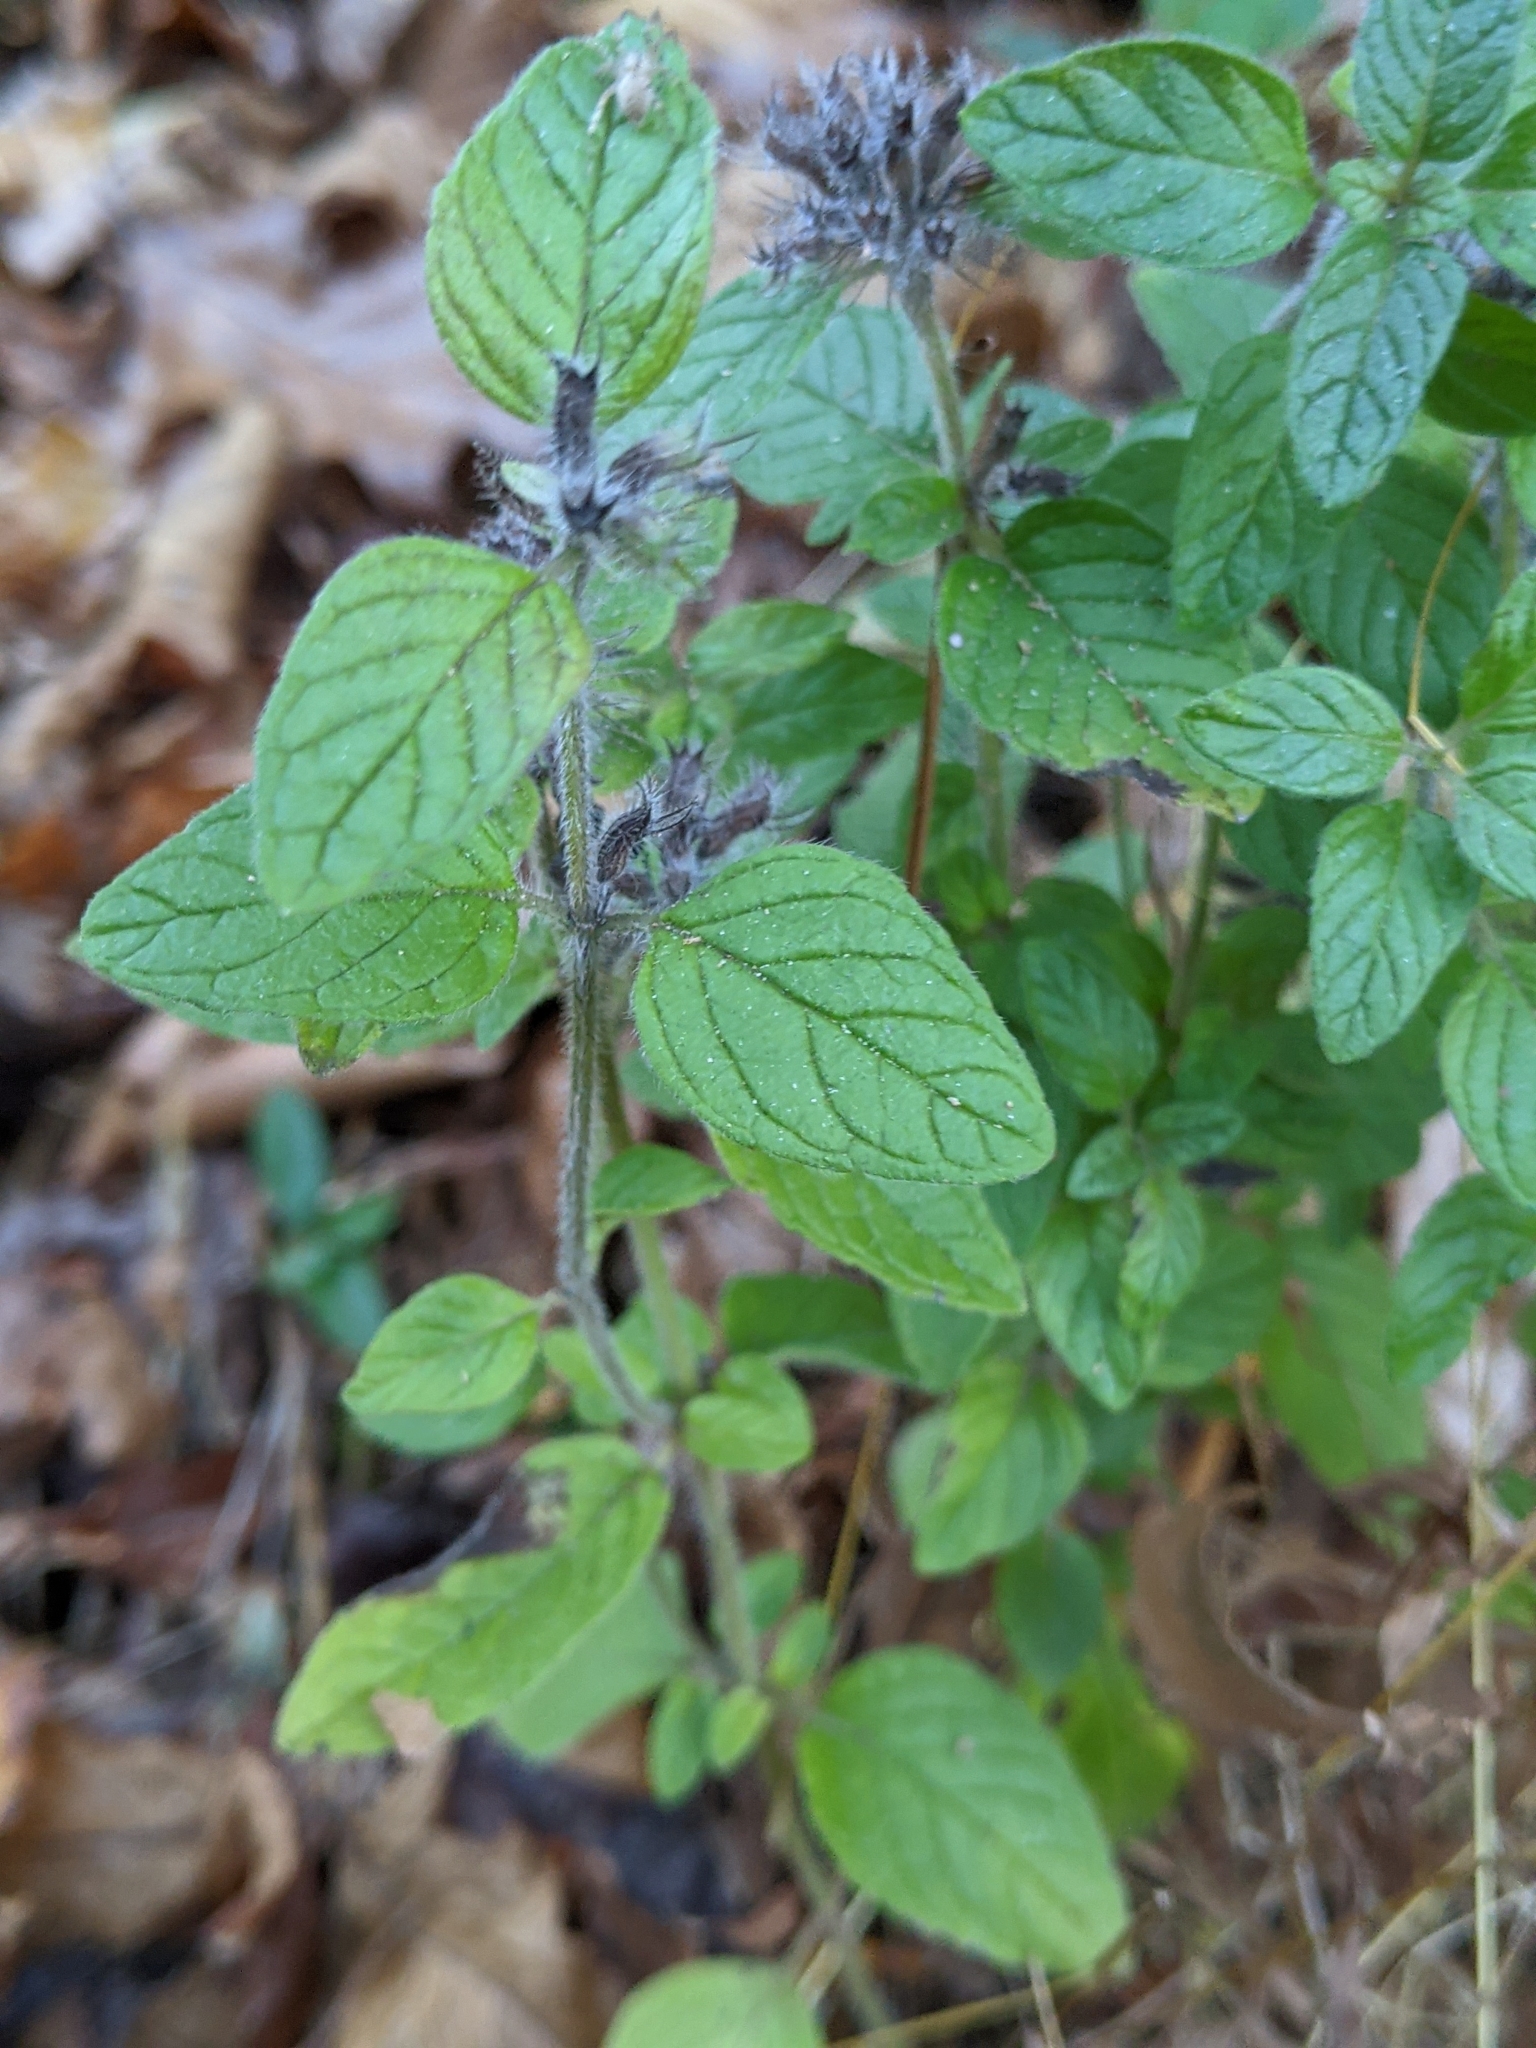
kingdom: Plantae
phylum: Tracheophyta
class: Magnoliopsida
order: Lamiales
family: Lamiaceae
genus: Clinopodium
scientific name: Clinopodium vulgare
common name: Wild basil
